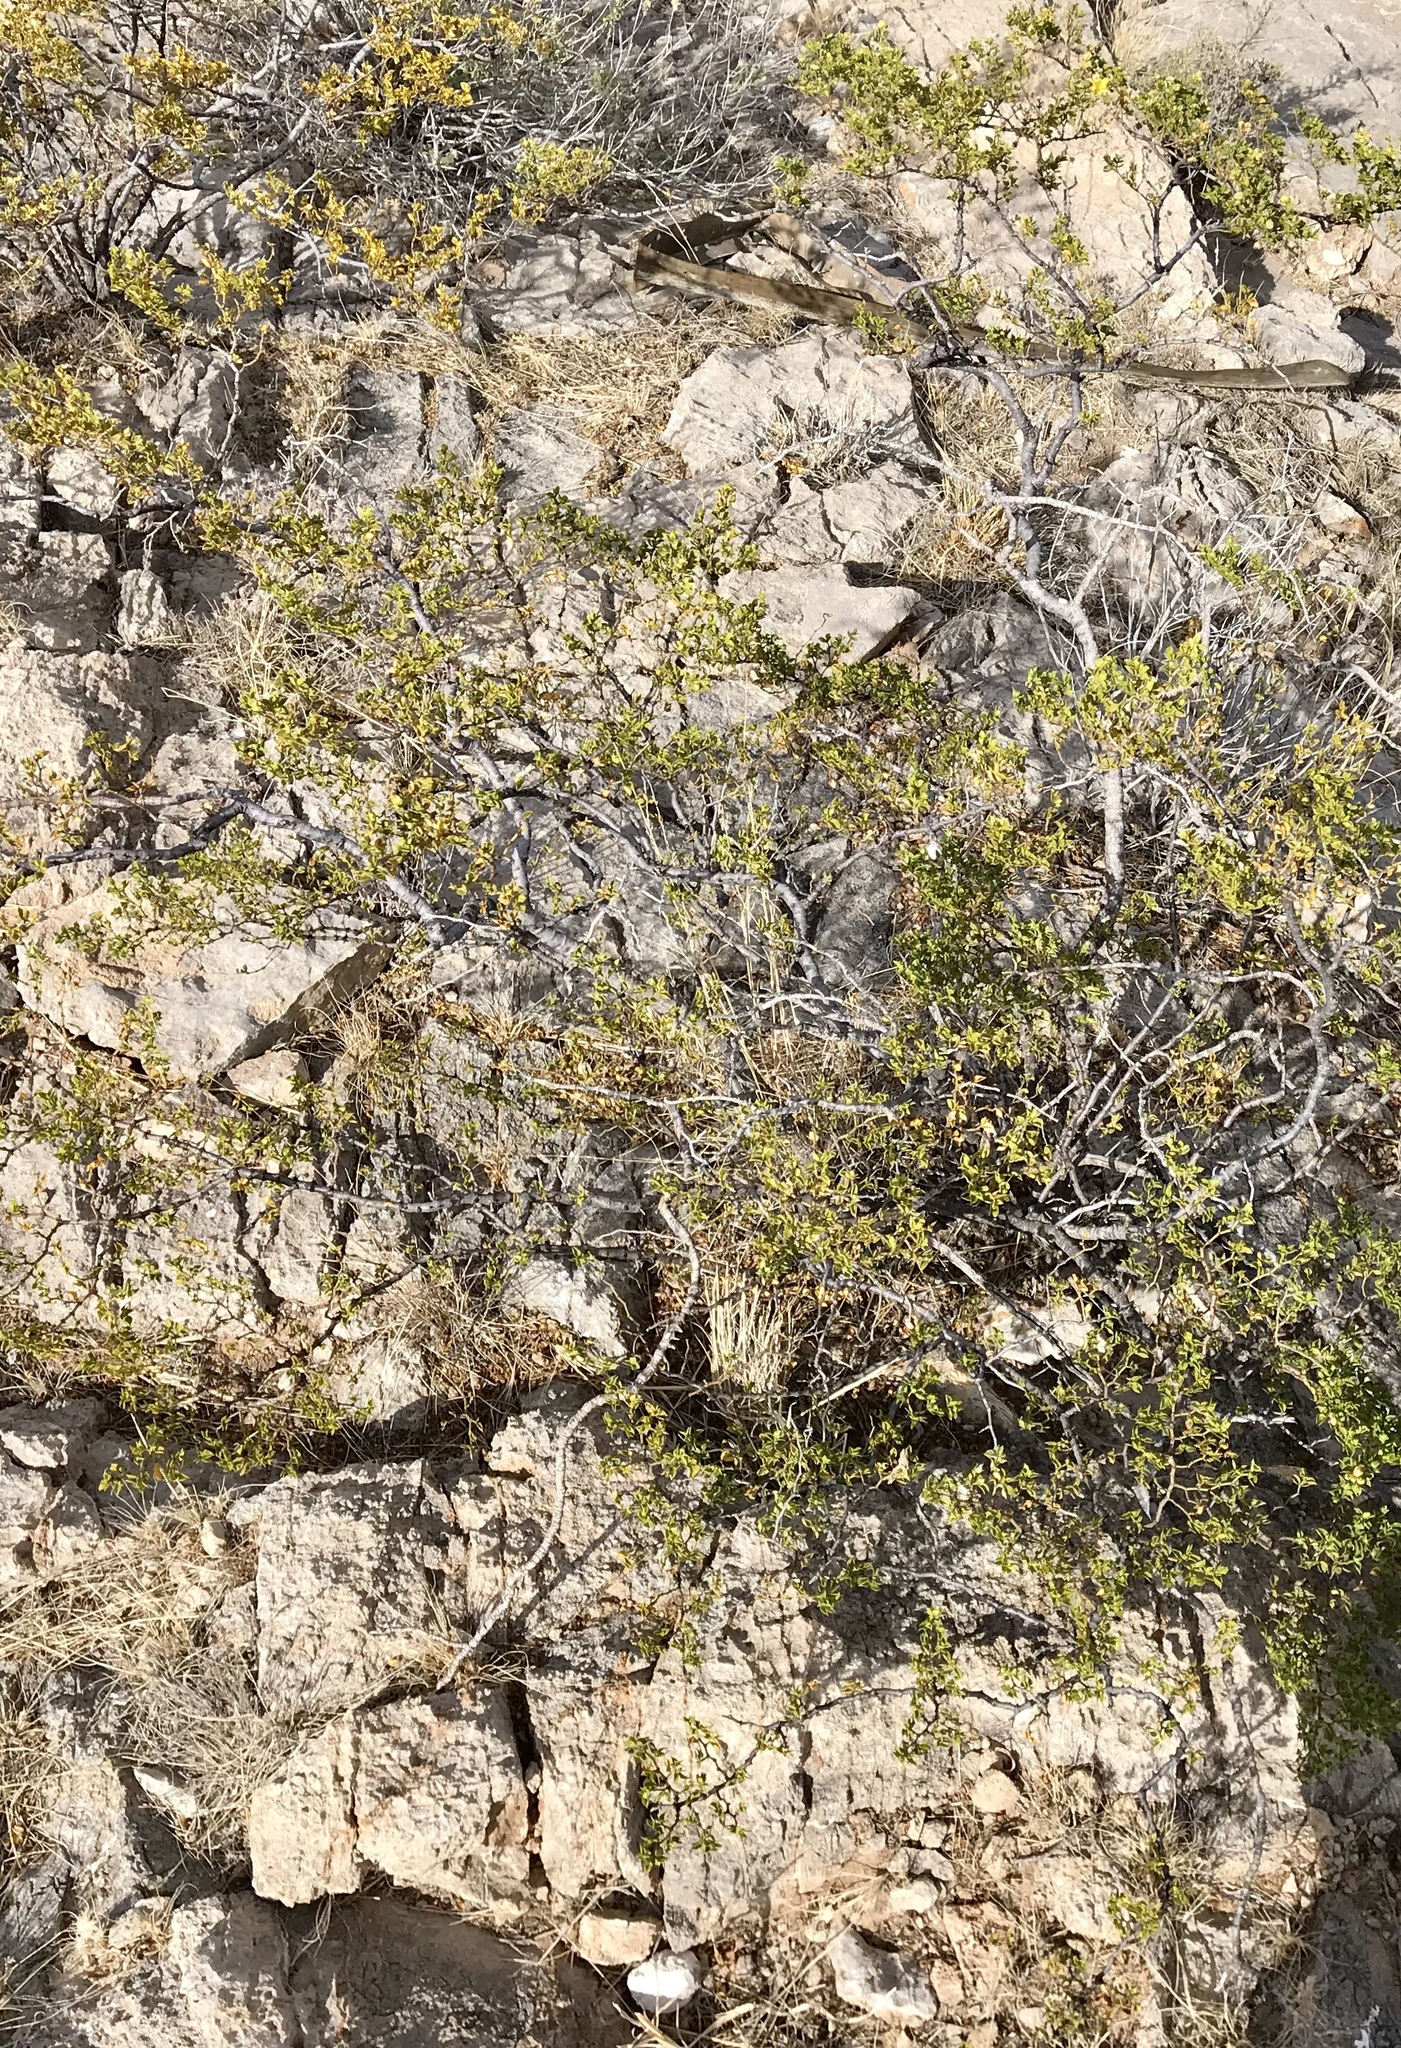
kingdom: Plantae
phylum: Tracheophyta
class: Magnoliopsida
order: Zygophyllales
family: Zygophyllaceae
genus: Larrea
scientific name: Larrea tridentata
